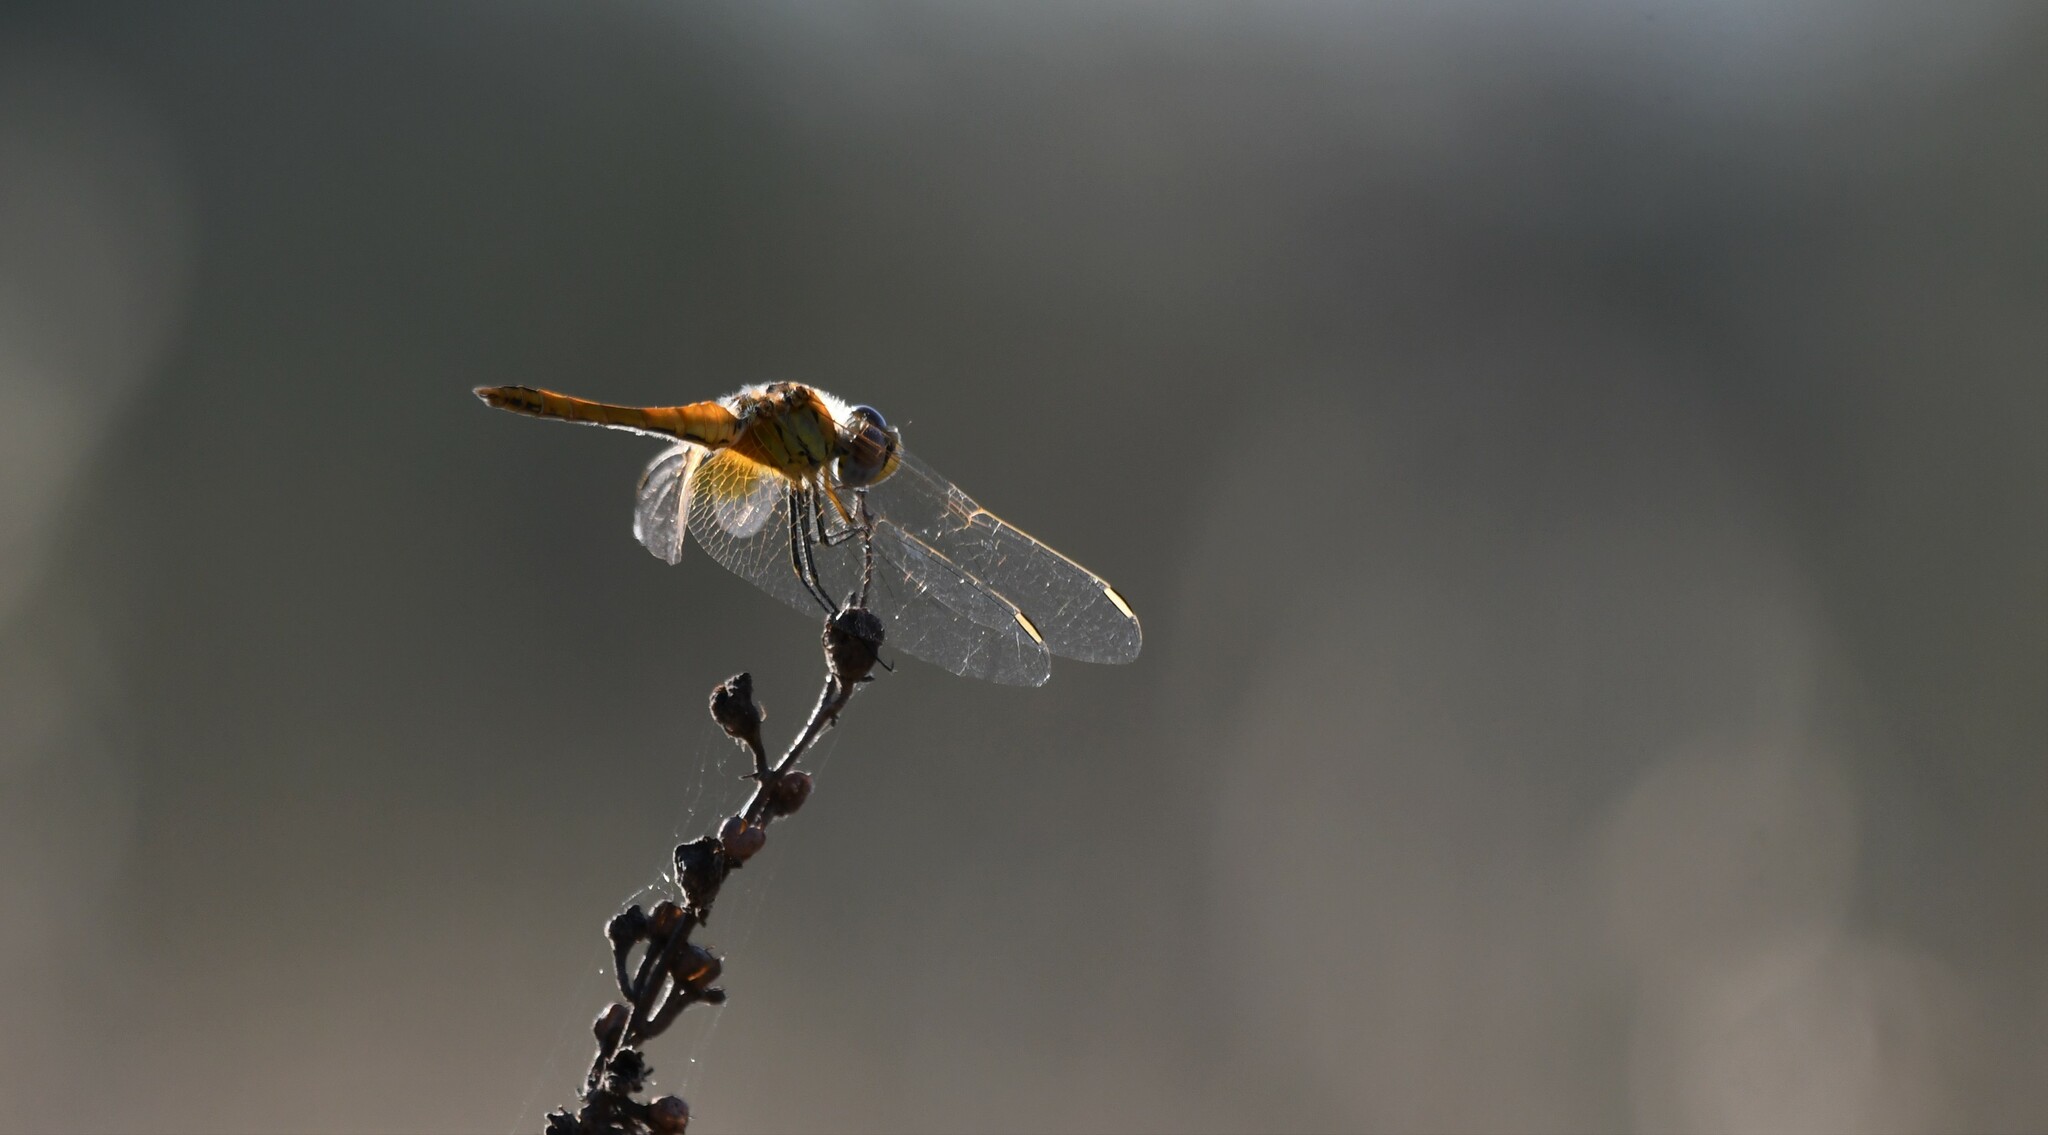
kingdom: Animalia
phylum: Arthropoda
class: Insecta
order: Odonata
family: Libellulidae
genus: Sympetrum
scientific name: Sympetrum fonscolombii
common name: Red-veined darter
